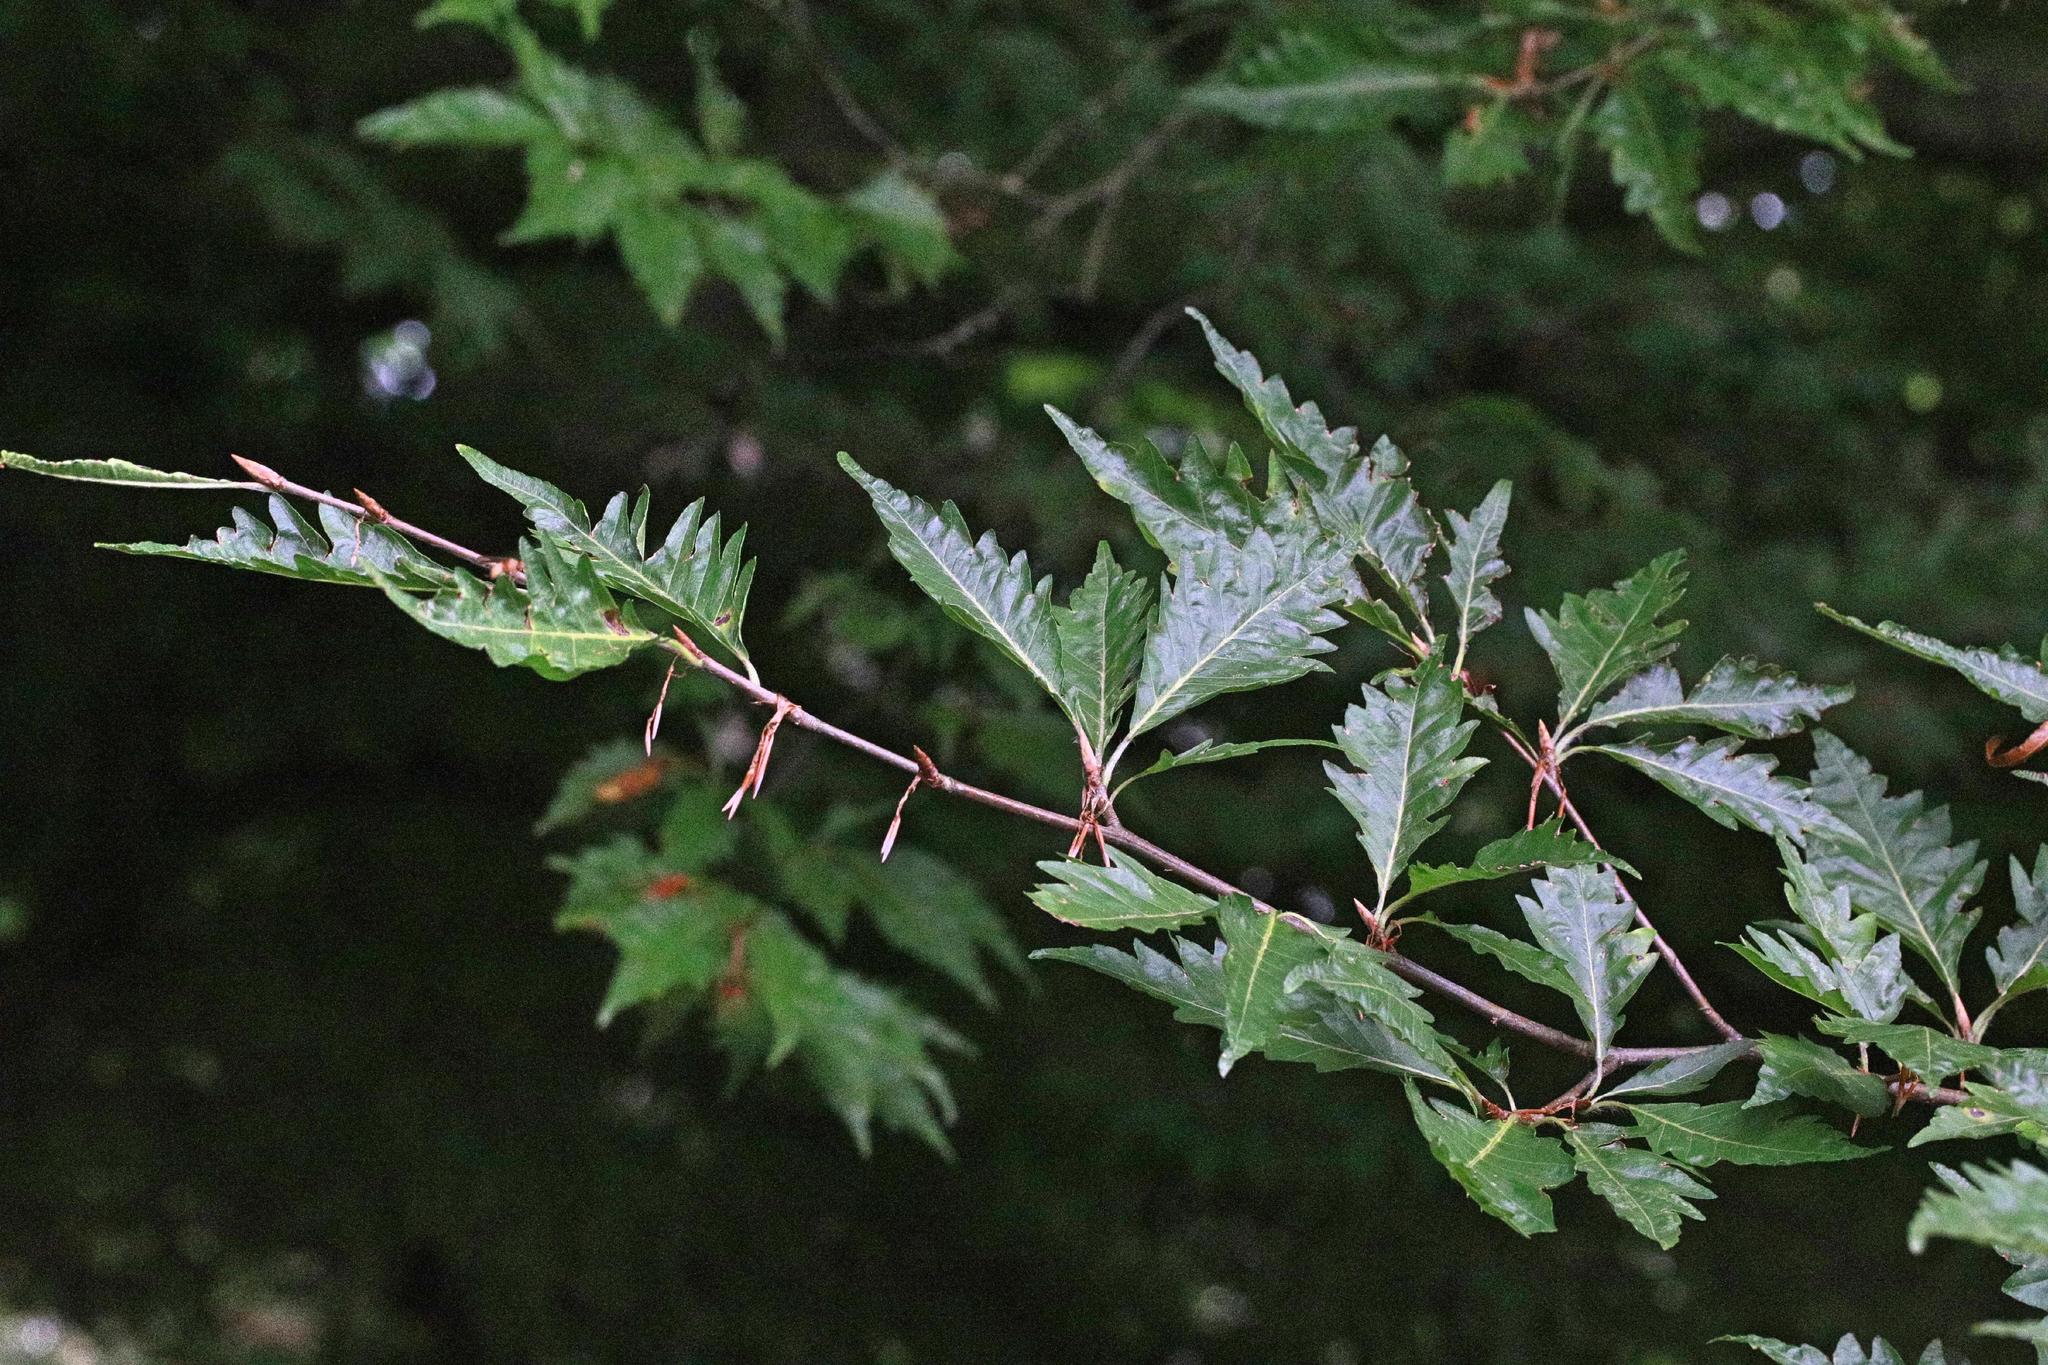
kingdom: Plantae
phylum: Tracheophyta
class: Magnoliopsida
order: Fagales
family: Fagaceae
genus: Fagus
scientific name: Fagus sylvatica
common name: Beech
